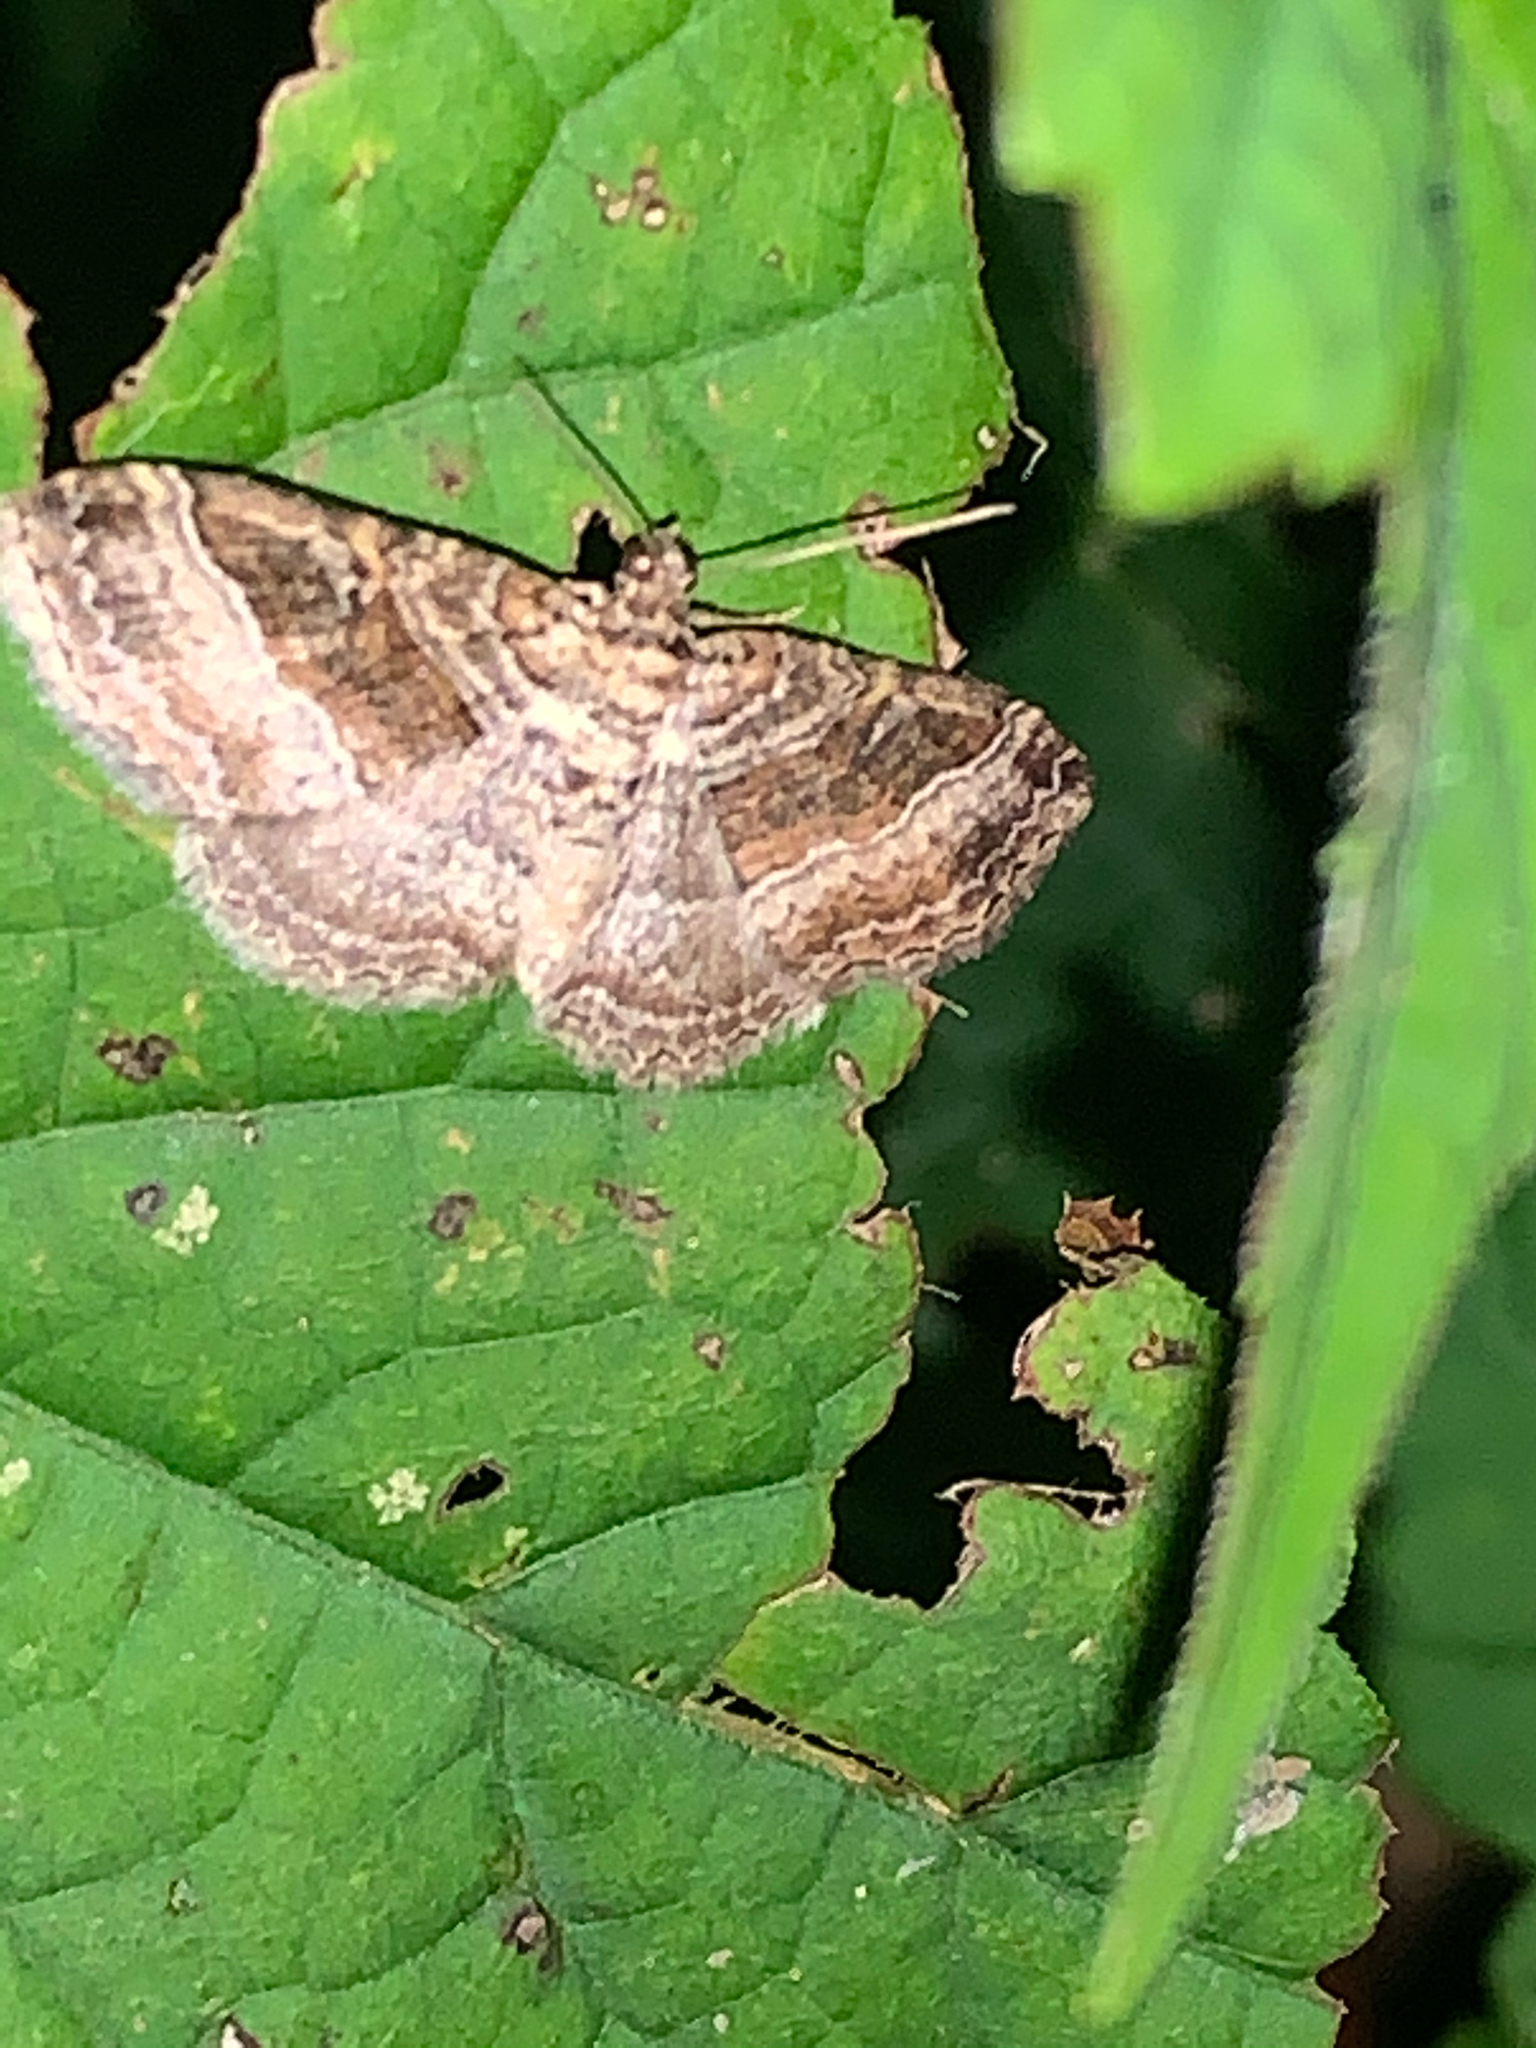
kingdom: Animalia
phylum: Arthropoda
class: Insecta
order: Lepidoptera
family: Geometridae
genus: Costaconvexa
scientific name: Costaconvexa centrostrigaria
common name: Bent-line carpet
